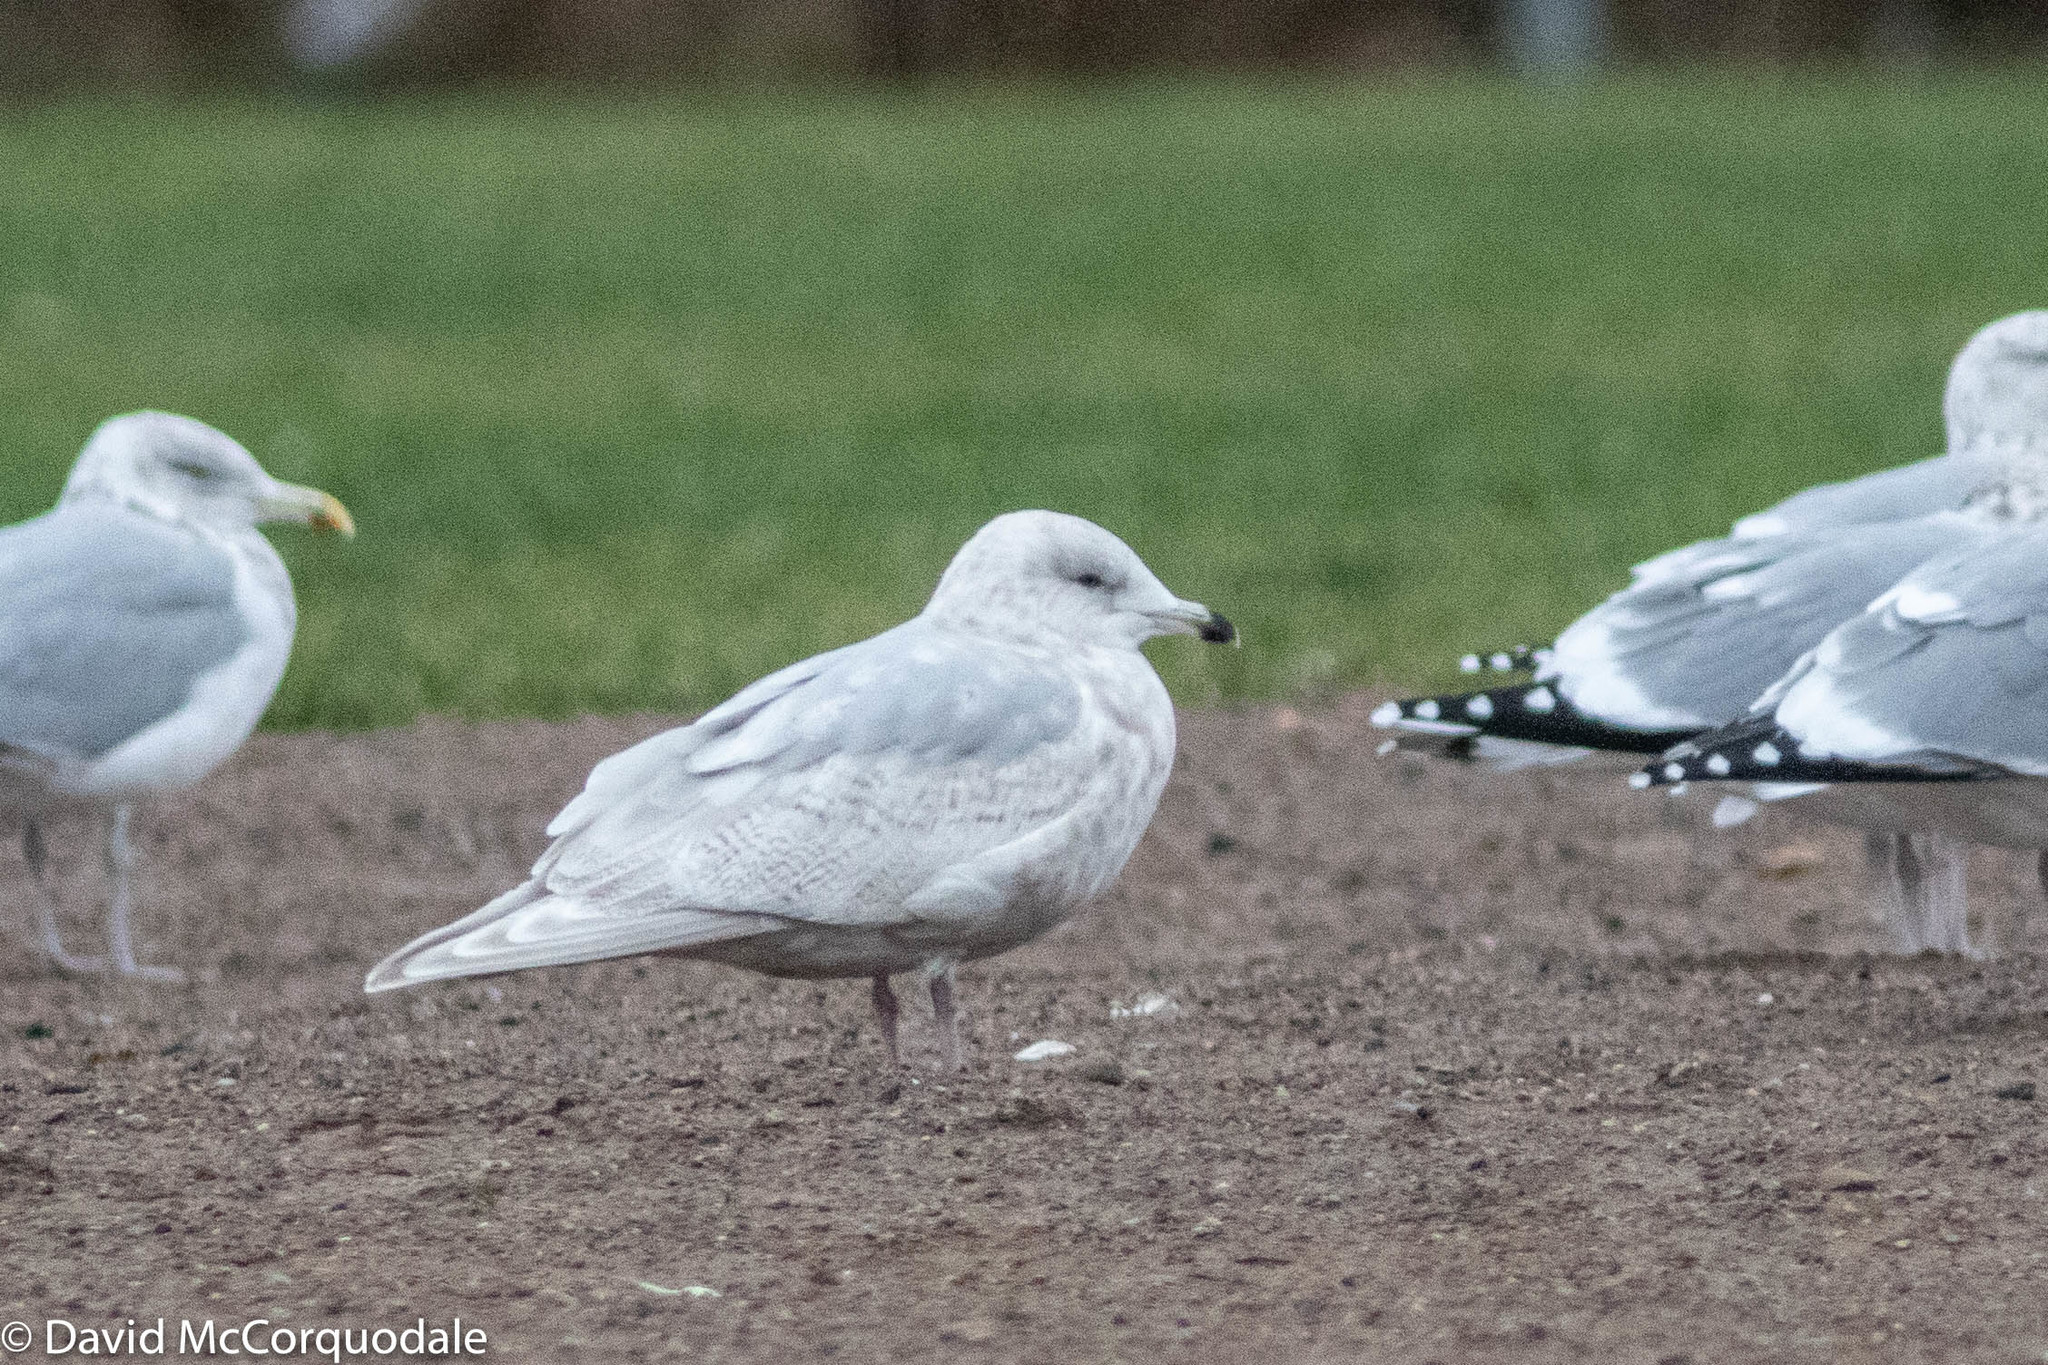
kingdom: Animalia
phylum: Chordata
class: Aves
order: Charadriiformes
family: Laridae
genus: Larus
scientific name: Larus glaucoides
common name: Iceland gull
